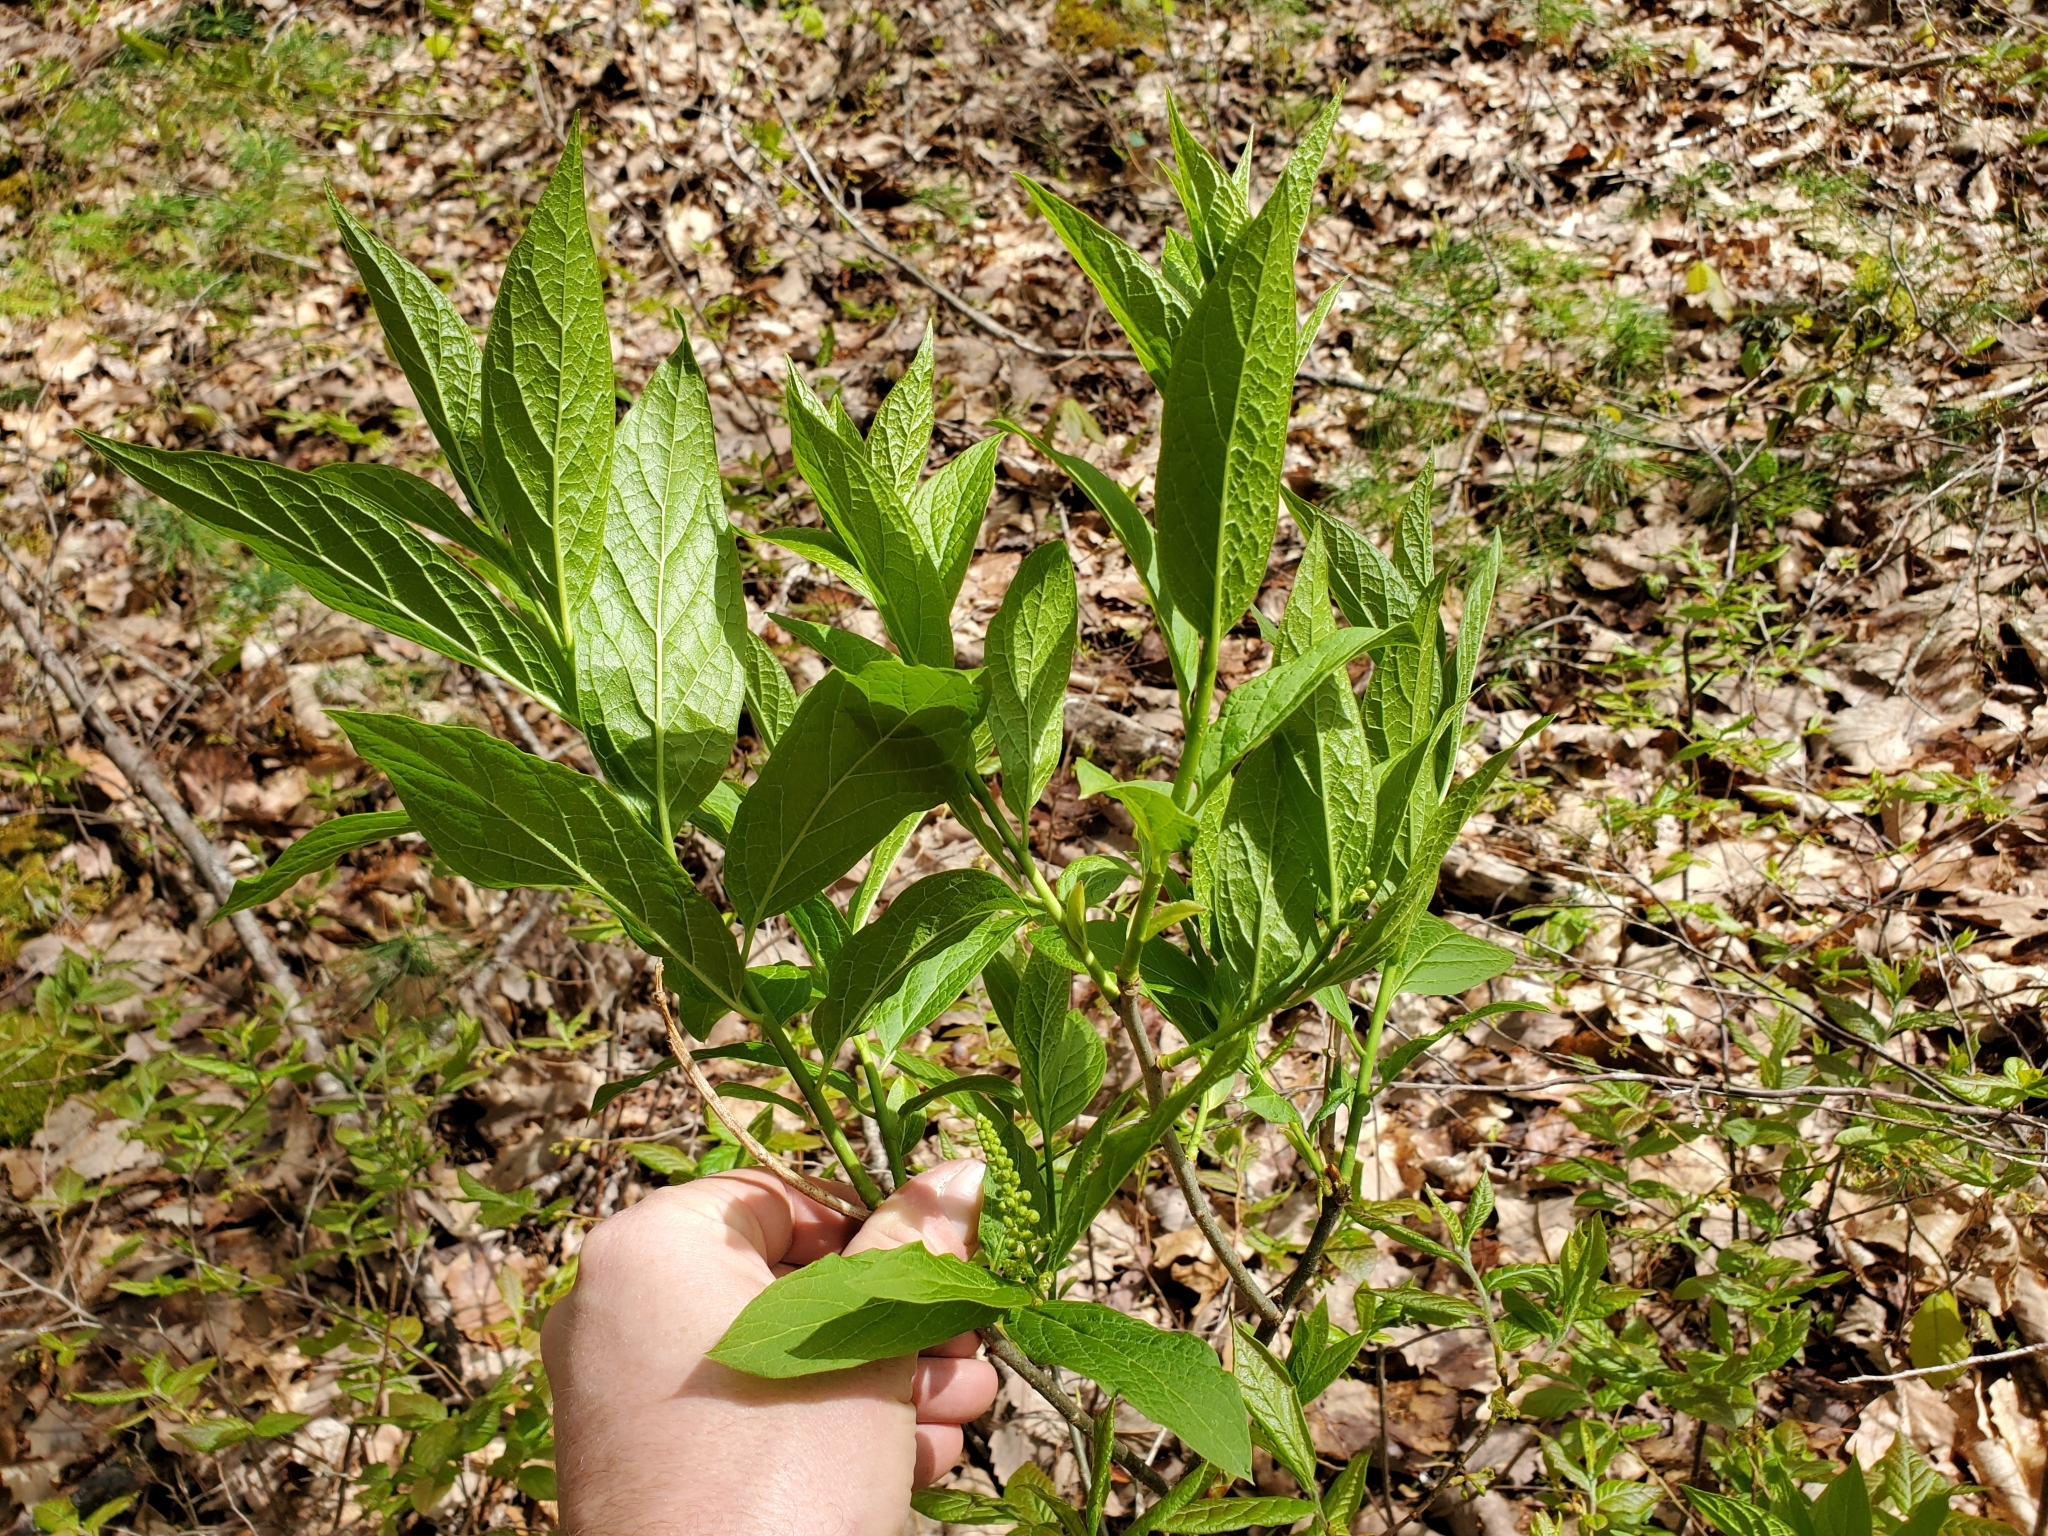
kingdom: Plantae
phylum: Tracheophyta
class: Magnoliopsida
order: Santalales
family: Cervantesiaceae
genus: Pyrularia
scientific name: Pyrularia pubera
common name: Oilnut
